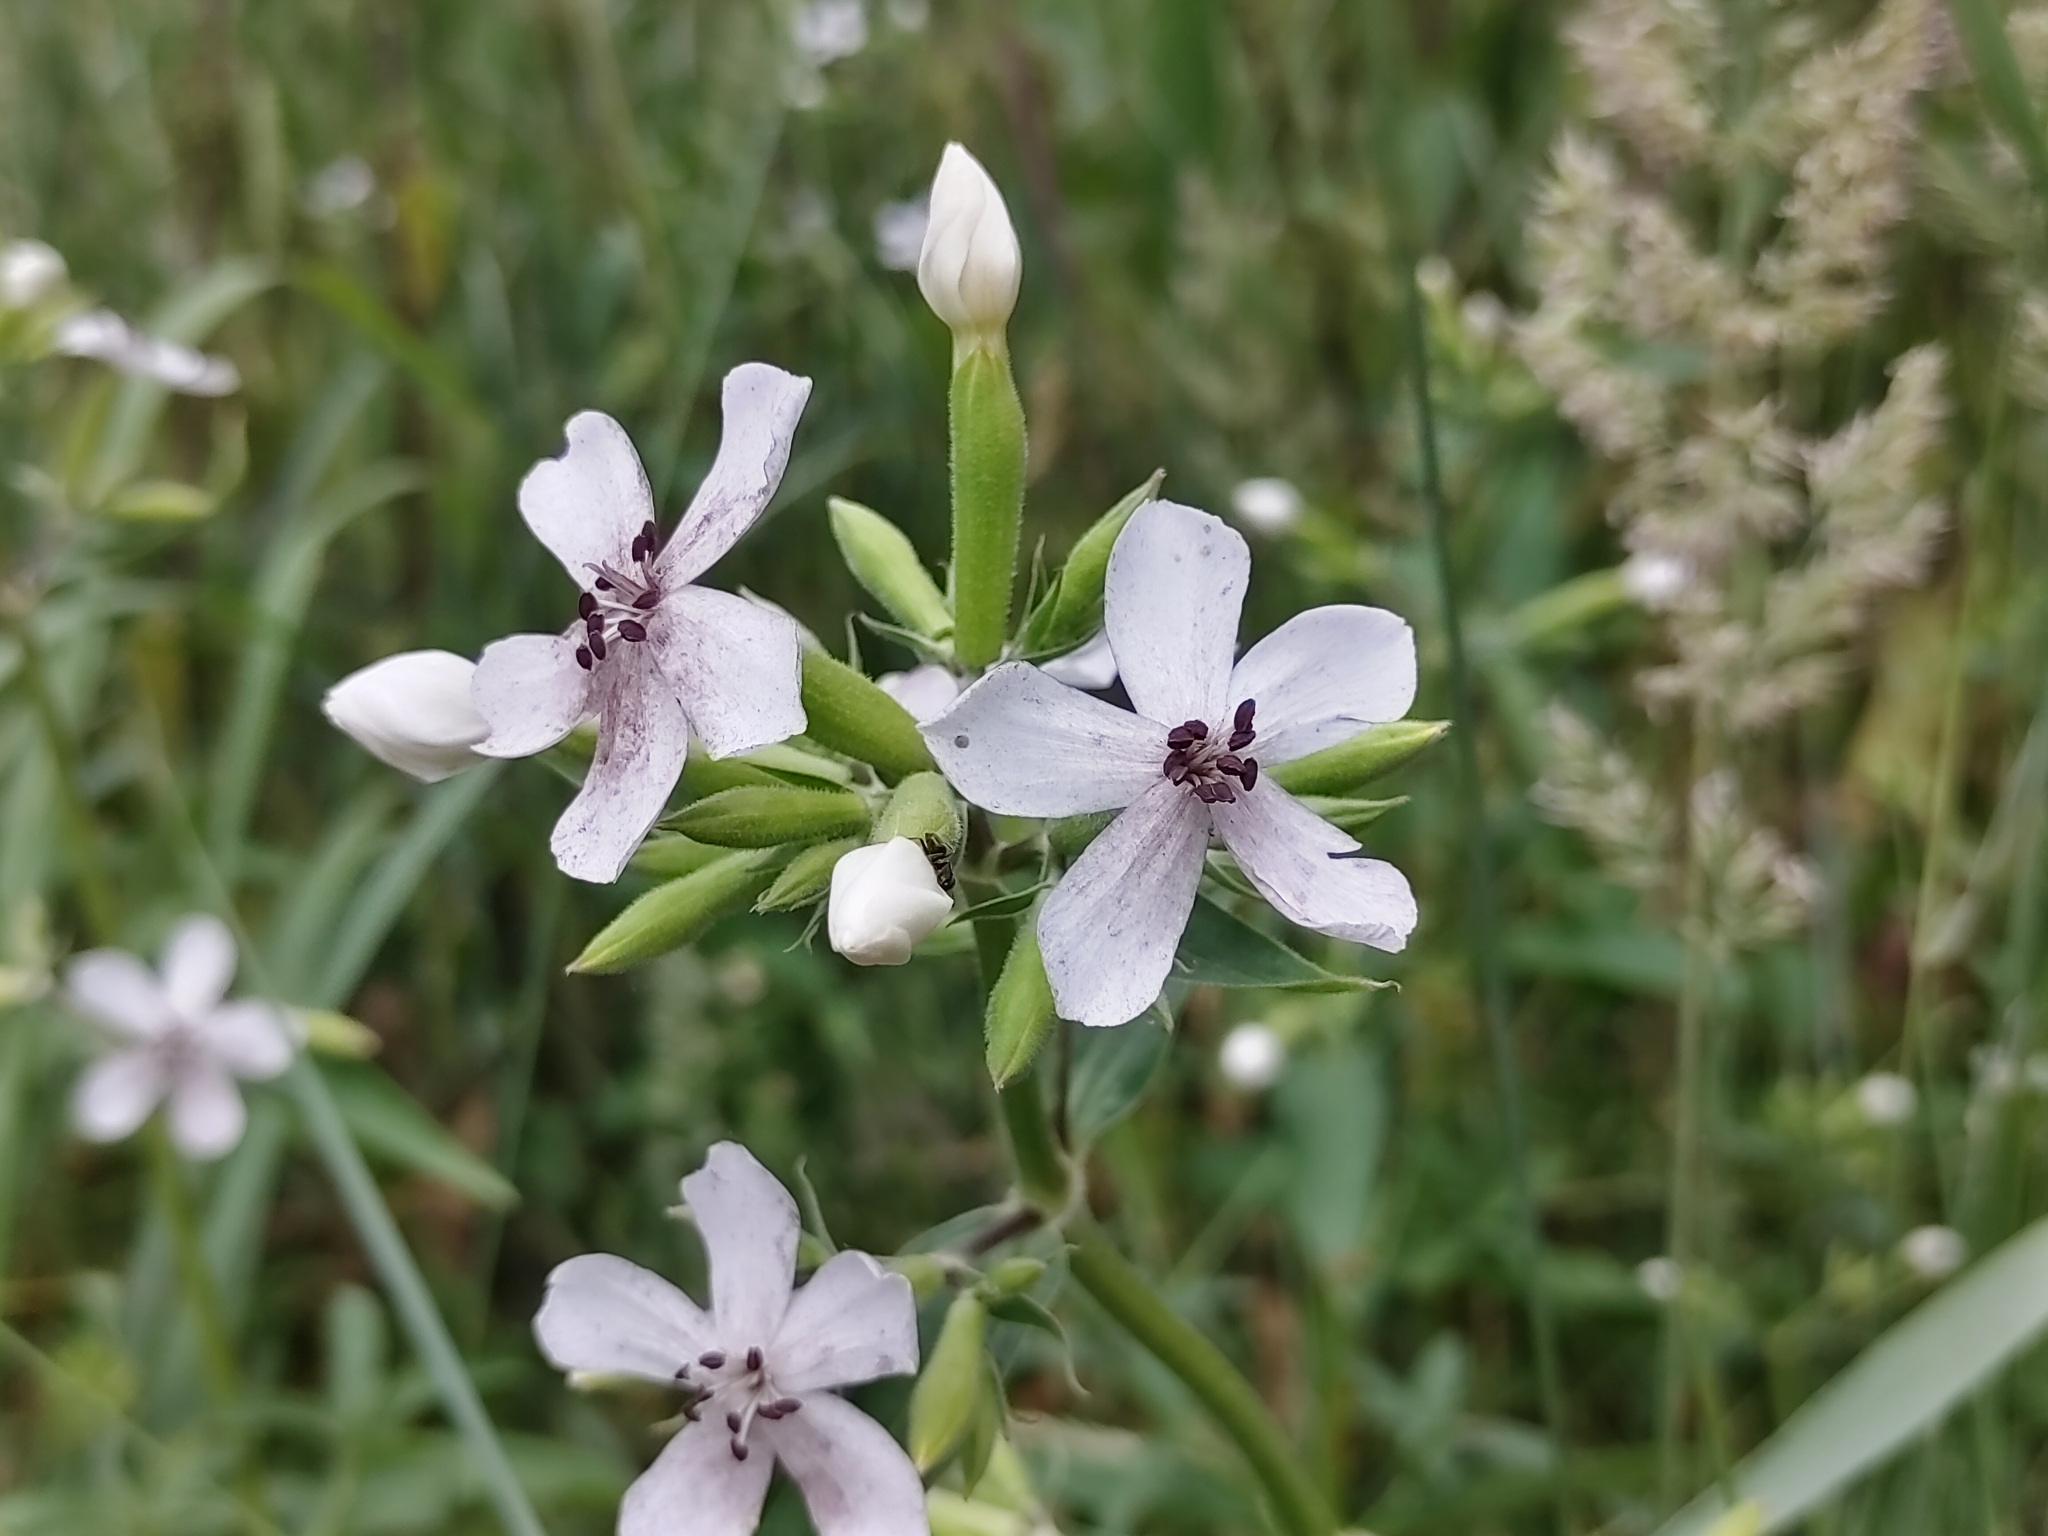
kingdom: Plantae
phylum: Tracheophyta
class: Magnoliopsida
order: Caryophyllales
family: Caryophyllaceae
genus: Saponaria
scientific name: Saponaria officinalis
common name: Soapwort
